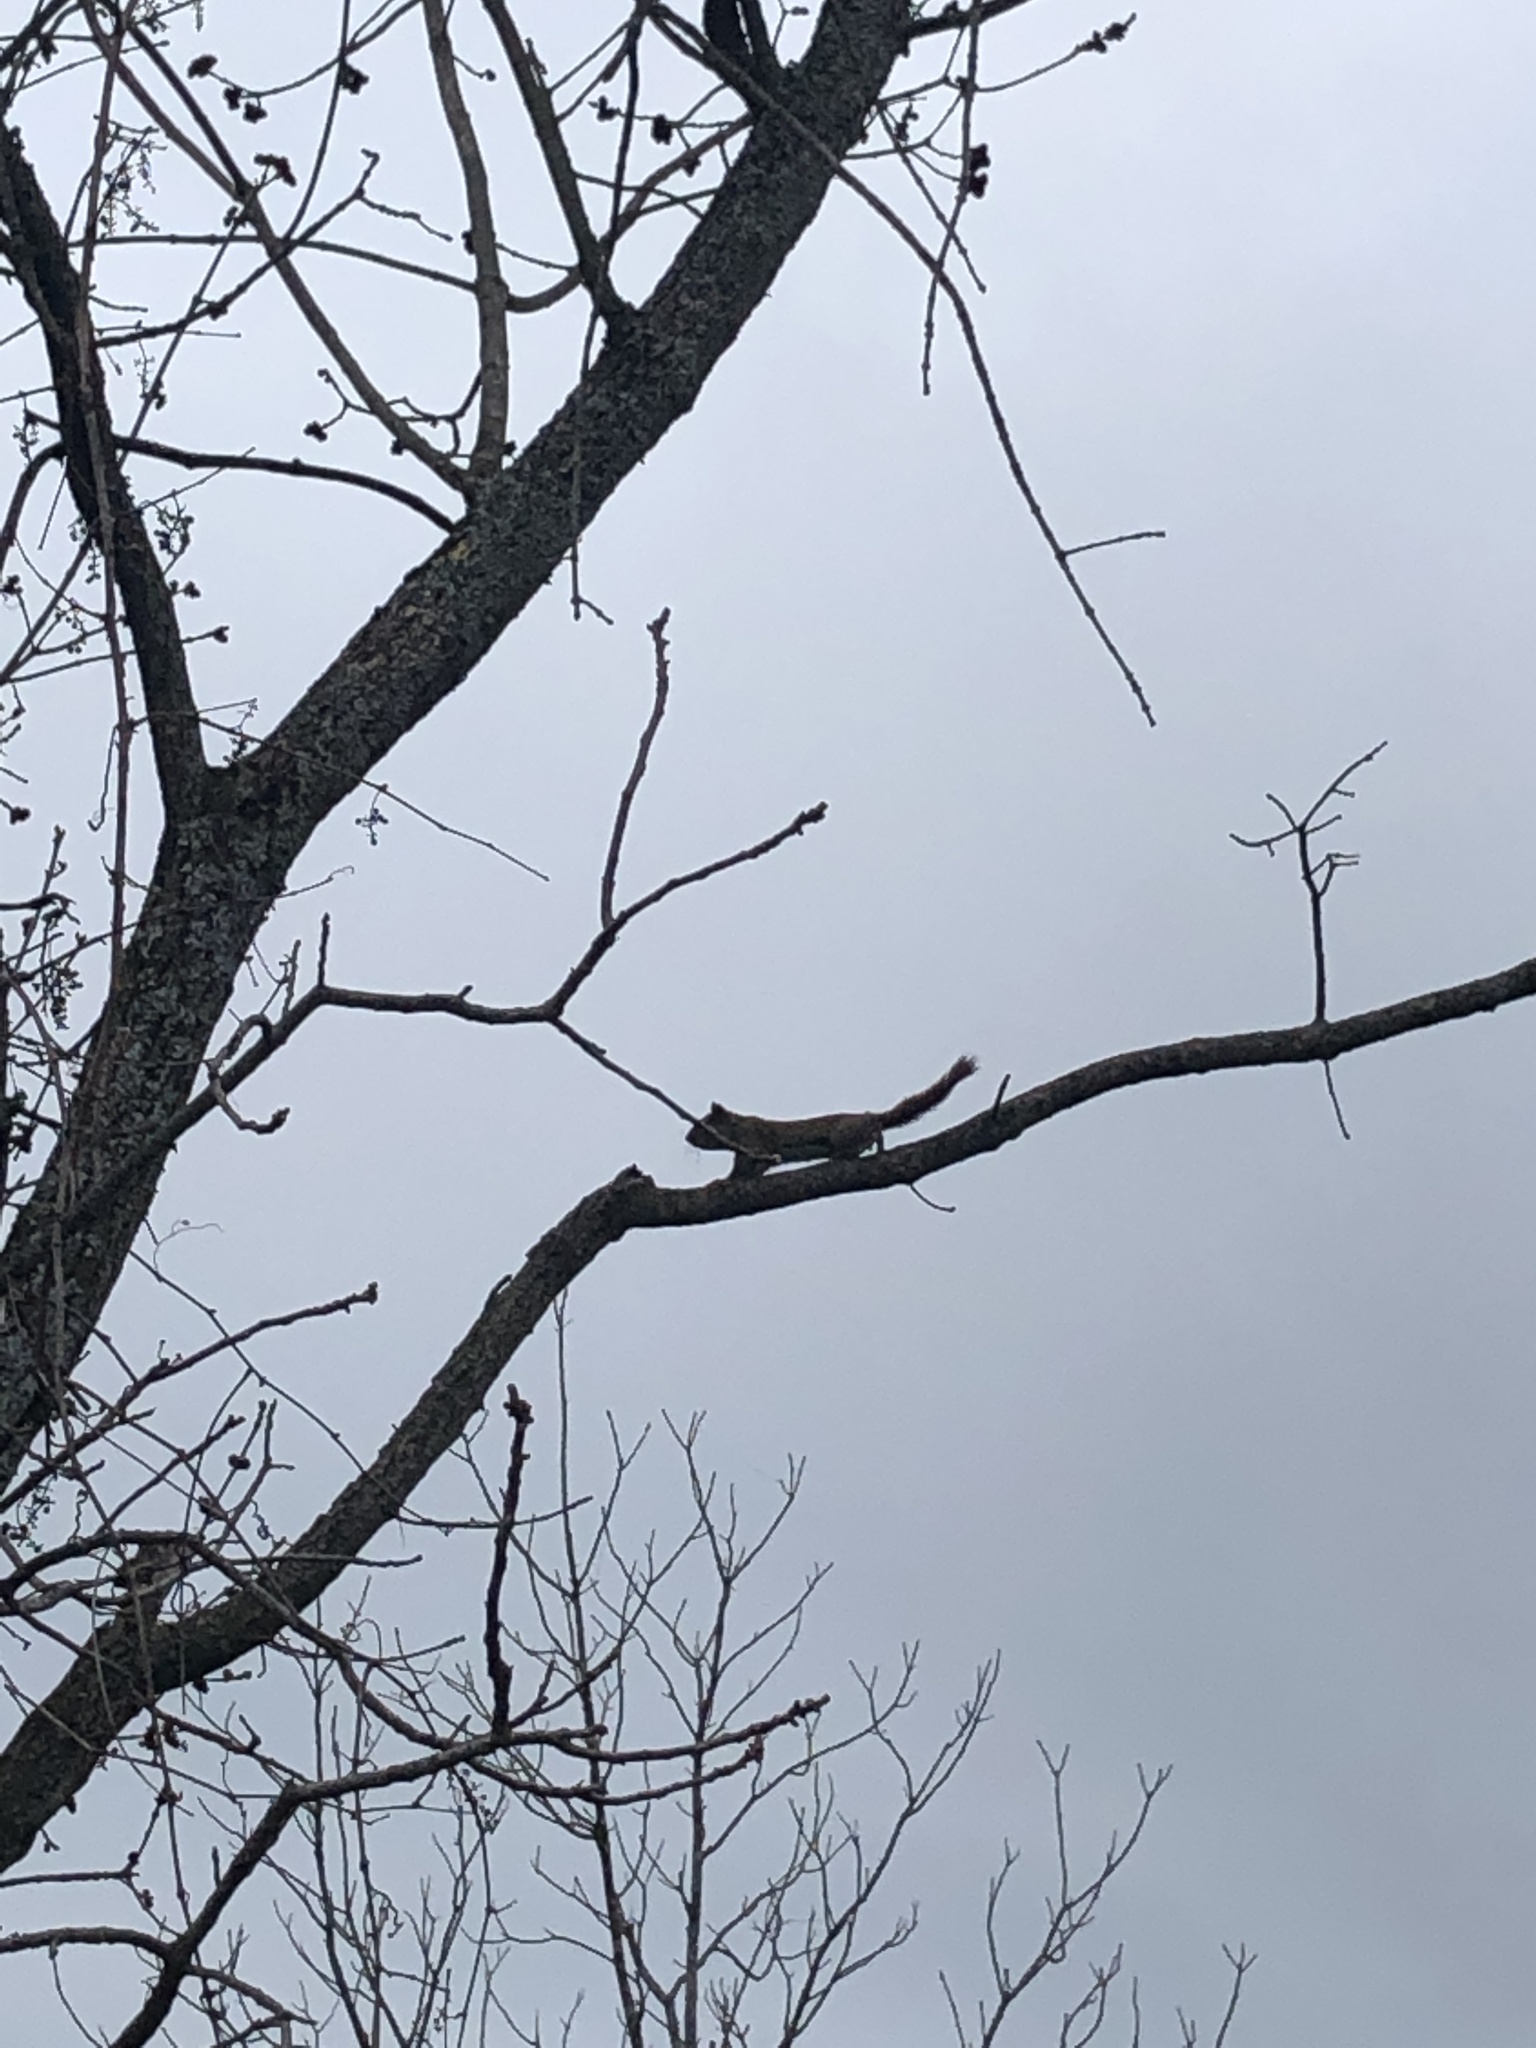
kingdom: Animalia
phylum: Chordata
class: Mammalia
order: Rodentia
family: Sciuridae
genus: Tamiasciurus
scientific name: Tamiasciurus hudsonicus
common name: Red squirrel
